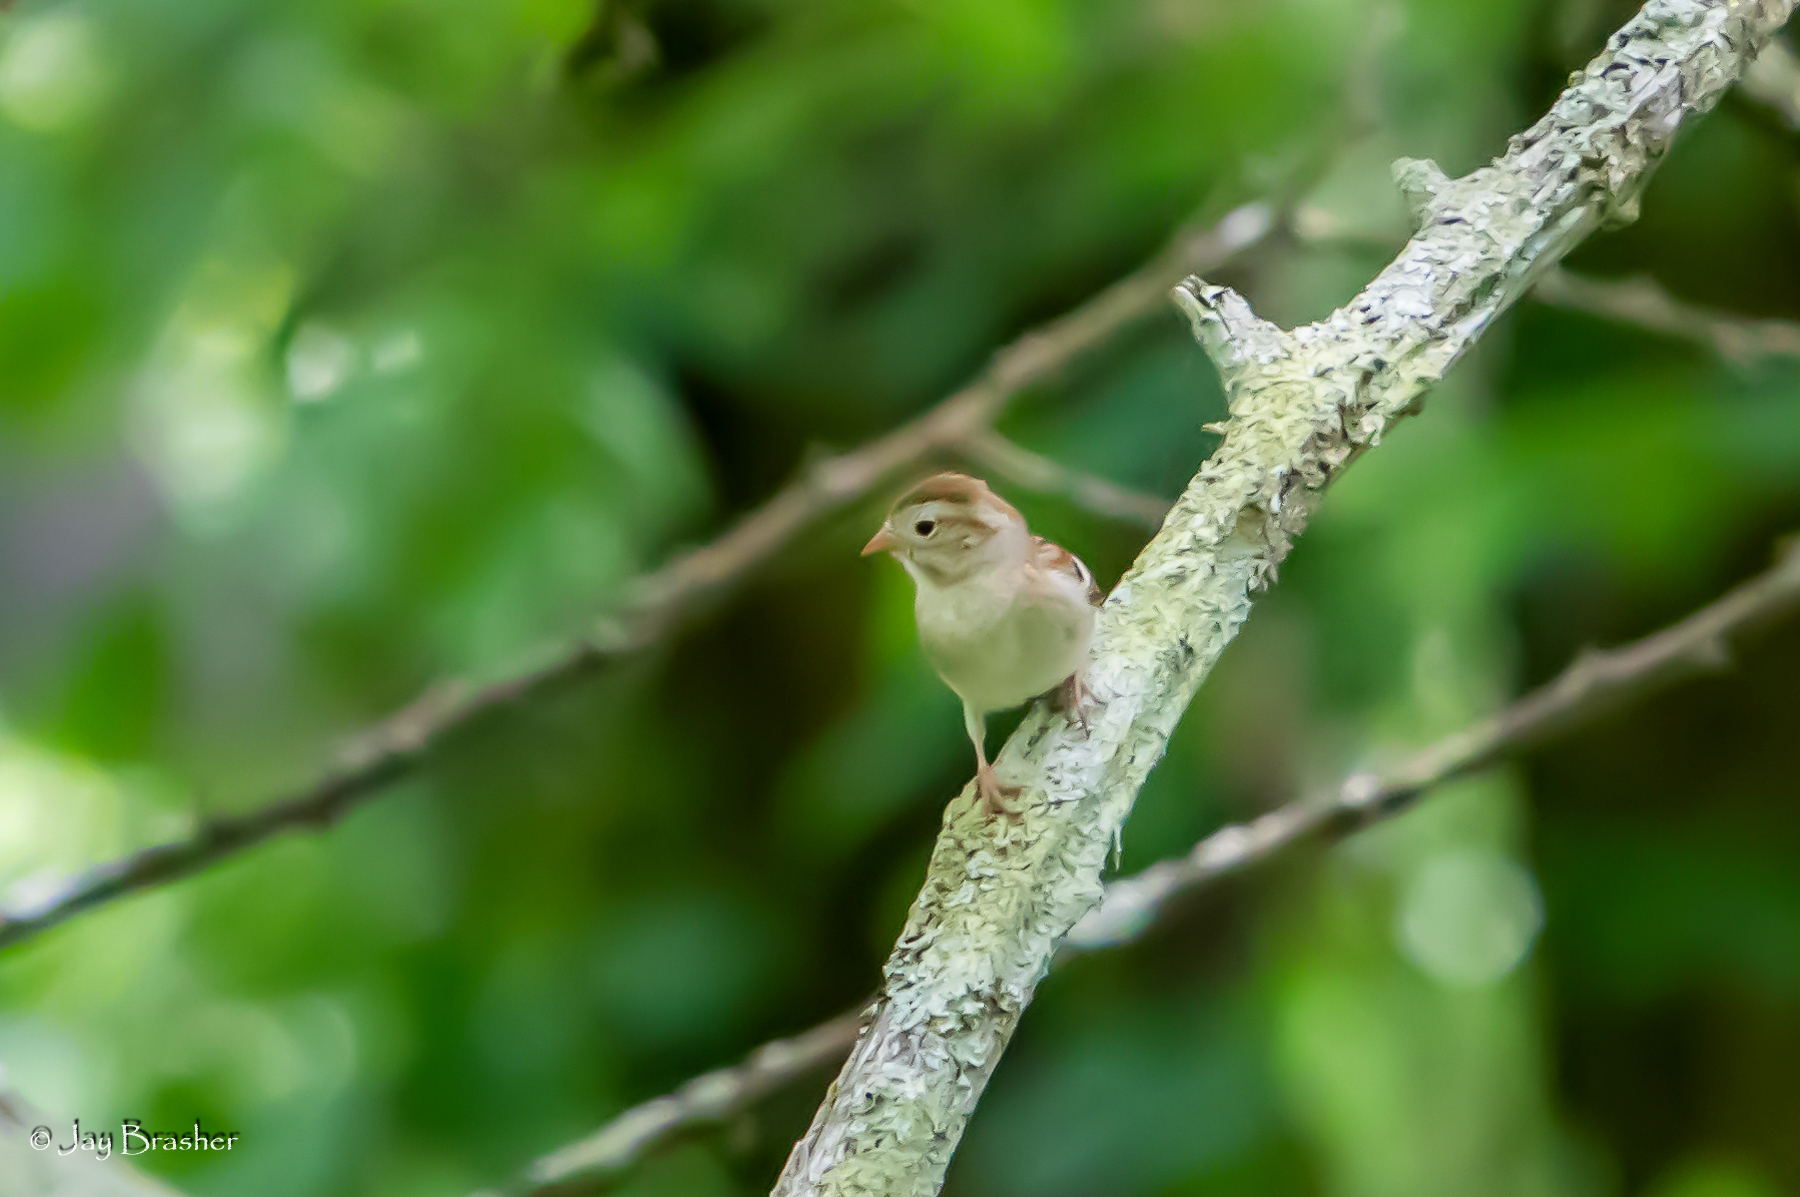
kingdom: Animalia
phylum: Chordata
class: Aves
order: Passeriformes
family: Passerellidae
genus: Spizella
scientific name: Spizella pusilla
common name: Field sparrow
